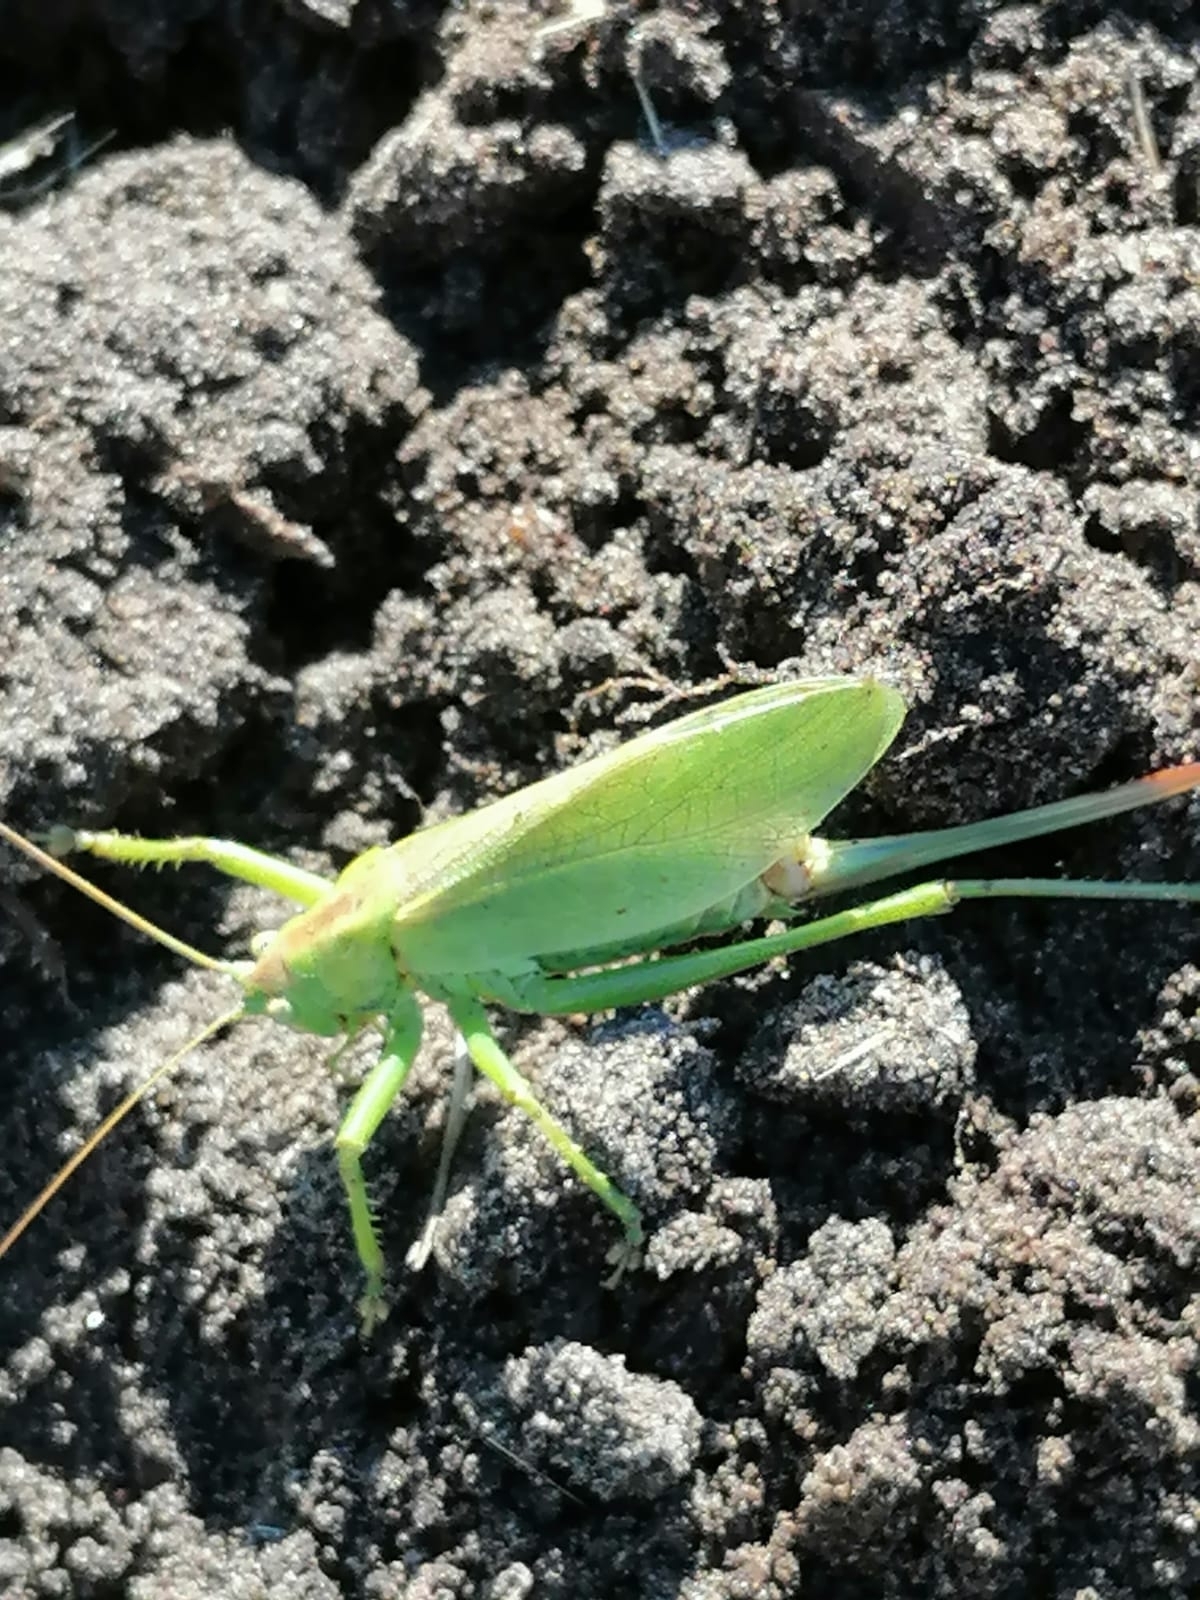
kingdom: Animalia
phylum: Arthropoda
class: Insecta
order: Orthoptera
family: Tettigoniidae
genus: Tettigonia
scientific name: Tettigonia cantans
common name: Upland green bush-cricket
